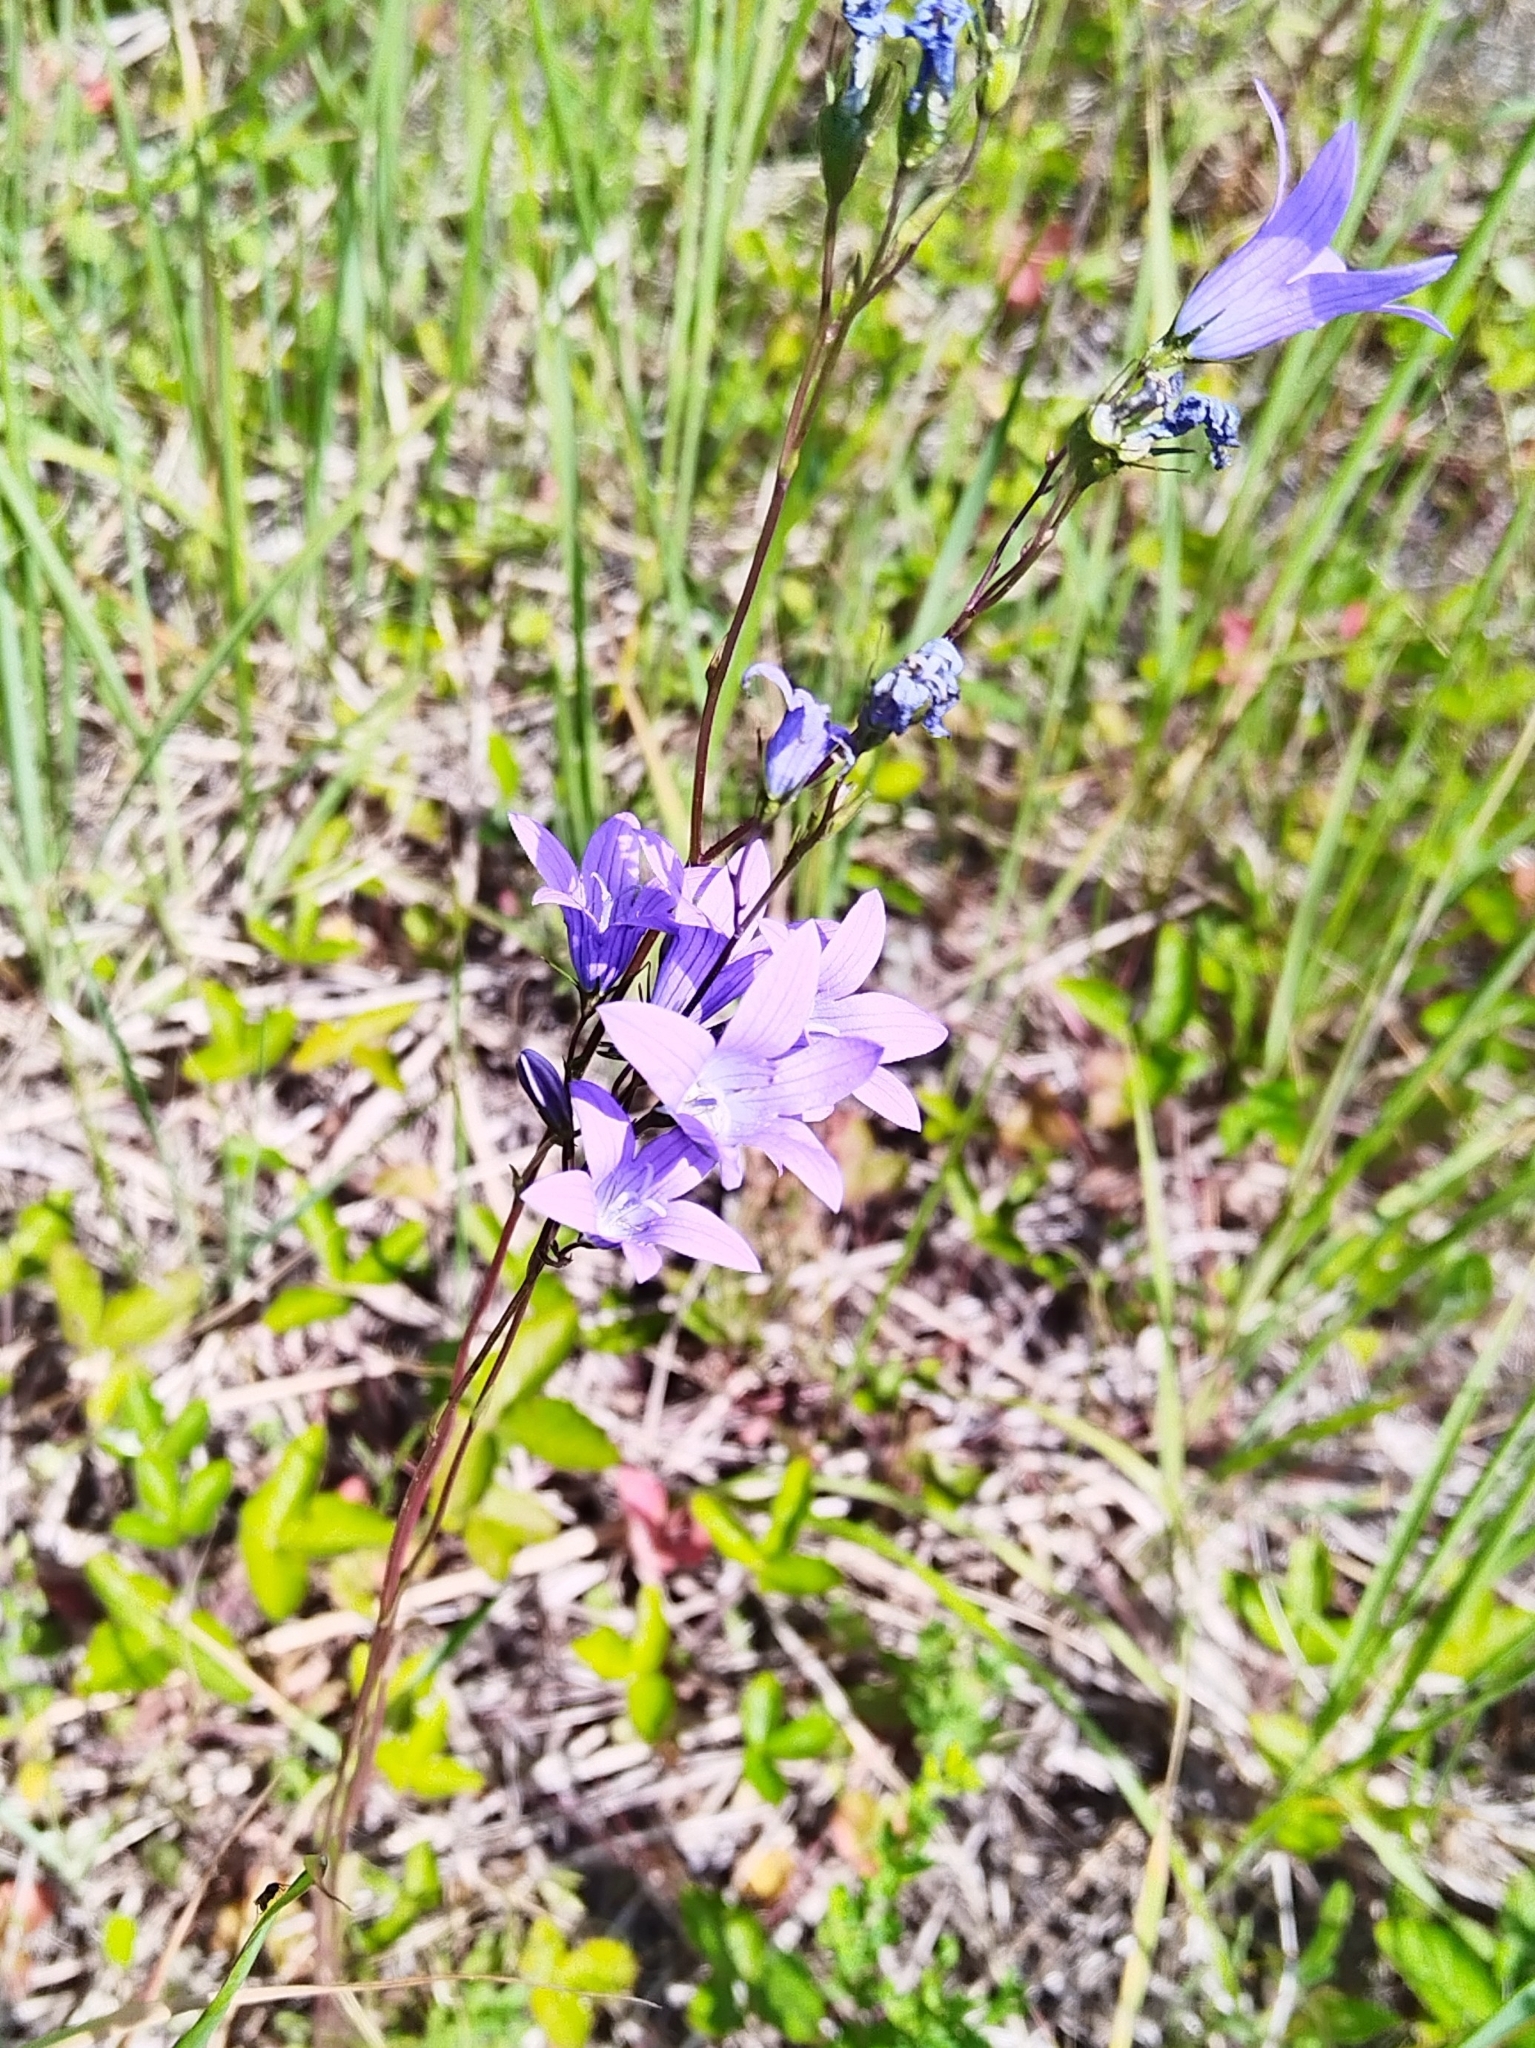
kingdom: Plantae
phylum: Tracheophyta
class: Magnoliopsida
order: Asterales
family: Campanulaceae
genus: Campanula
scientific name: Campanula patula
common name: Spreading bellflower
